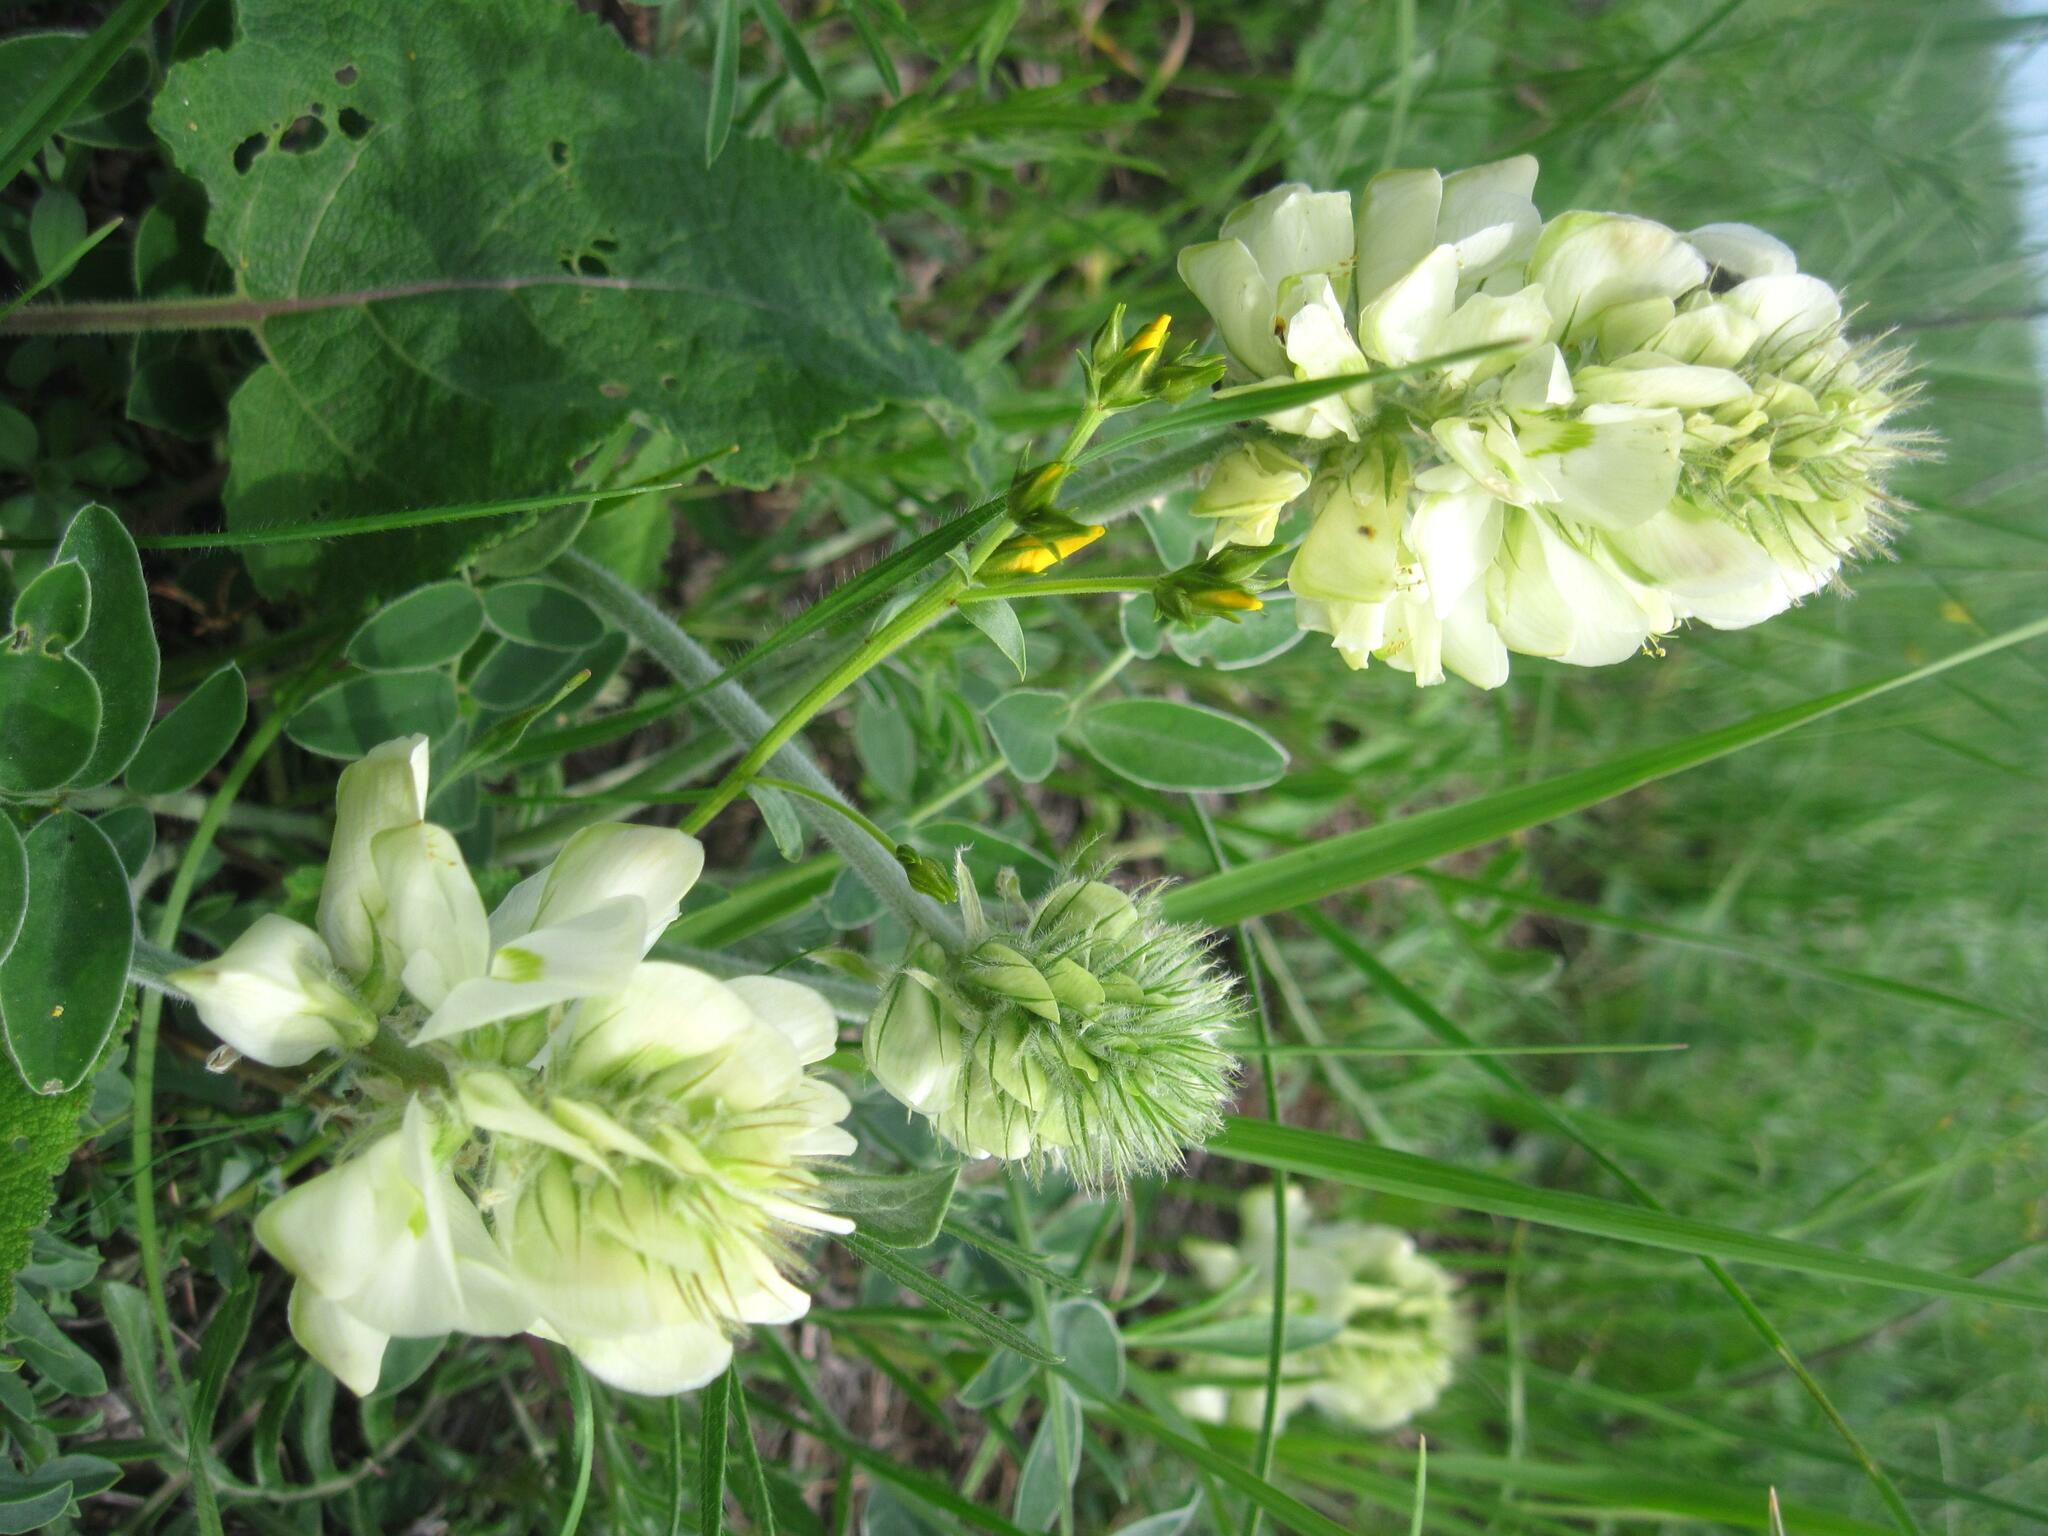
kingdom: Plantae
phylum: Tracheophyta
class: Magnoliopsida
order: Fabales
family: Fabaceae
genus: Hedysarum
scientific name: Hedysarum grandiflorum
